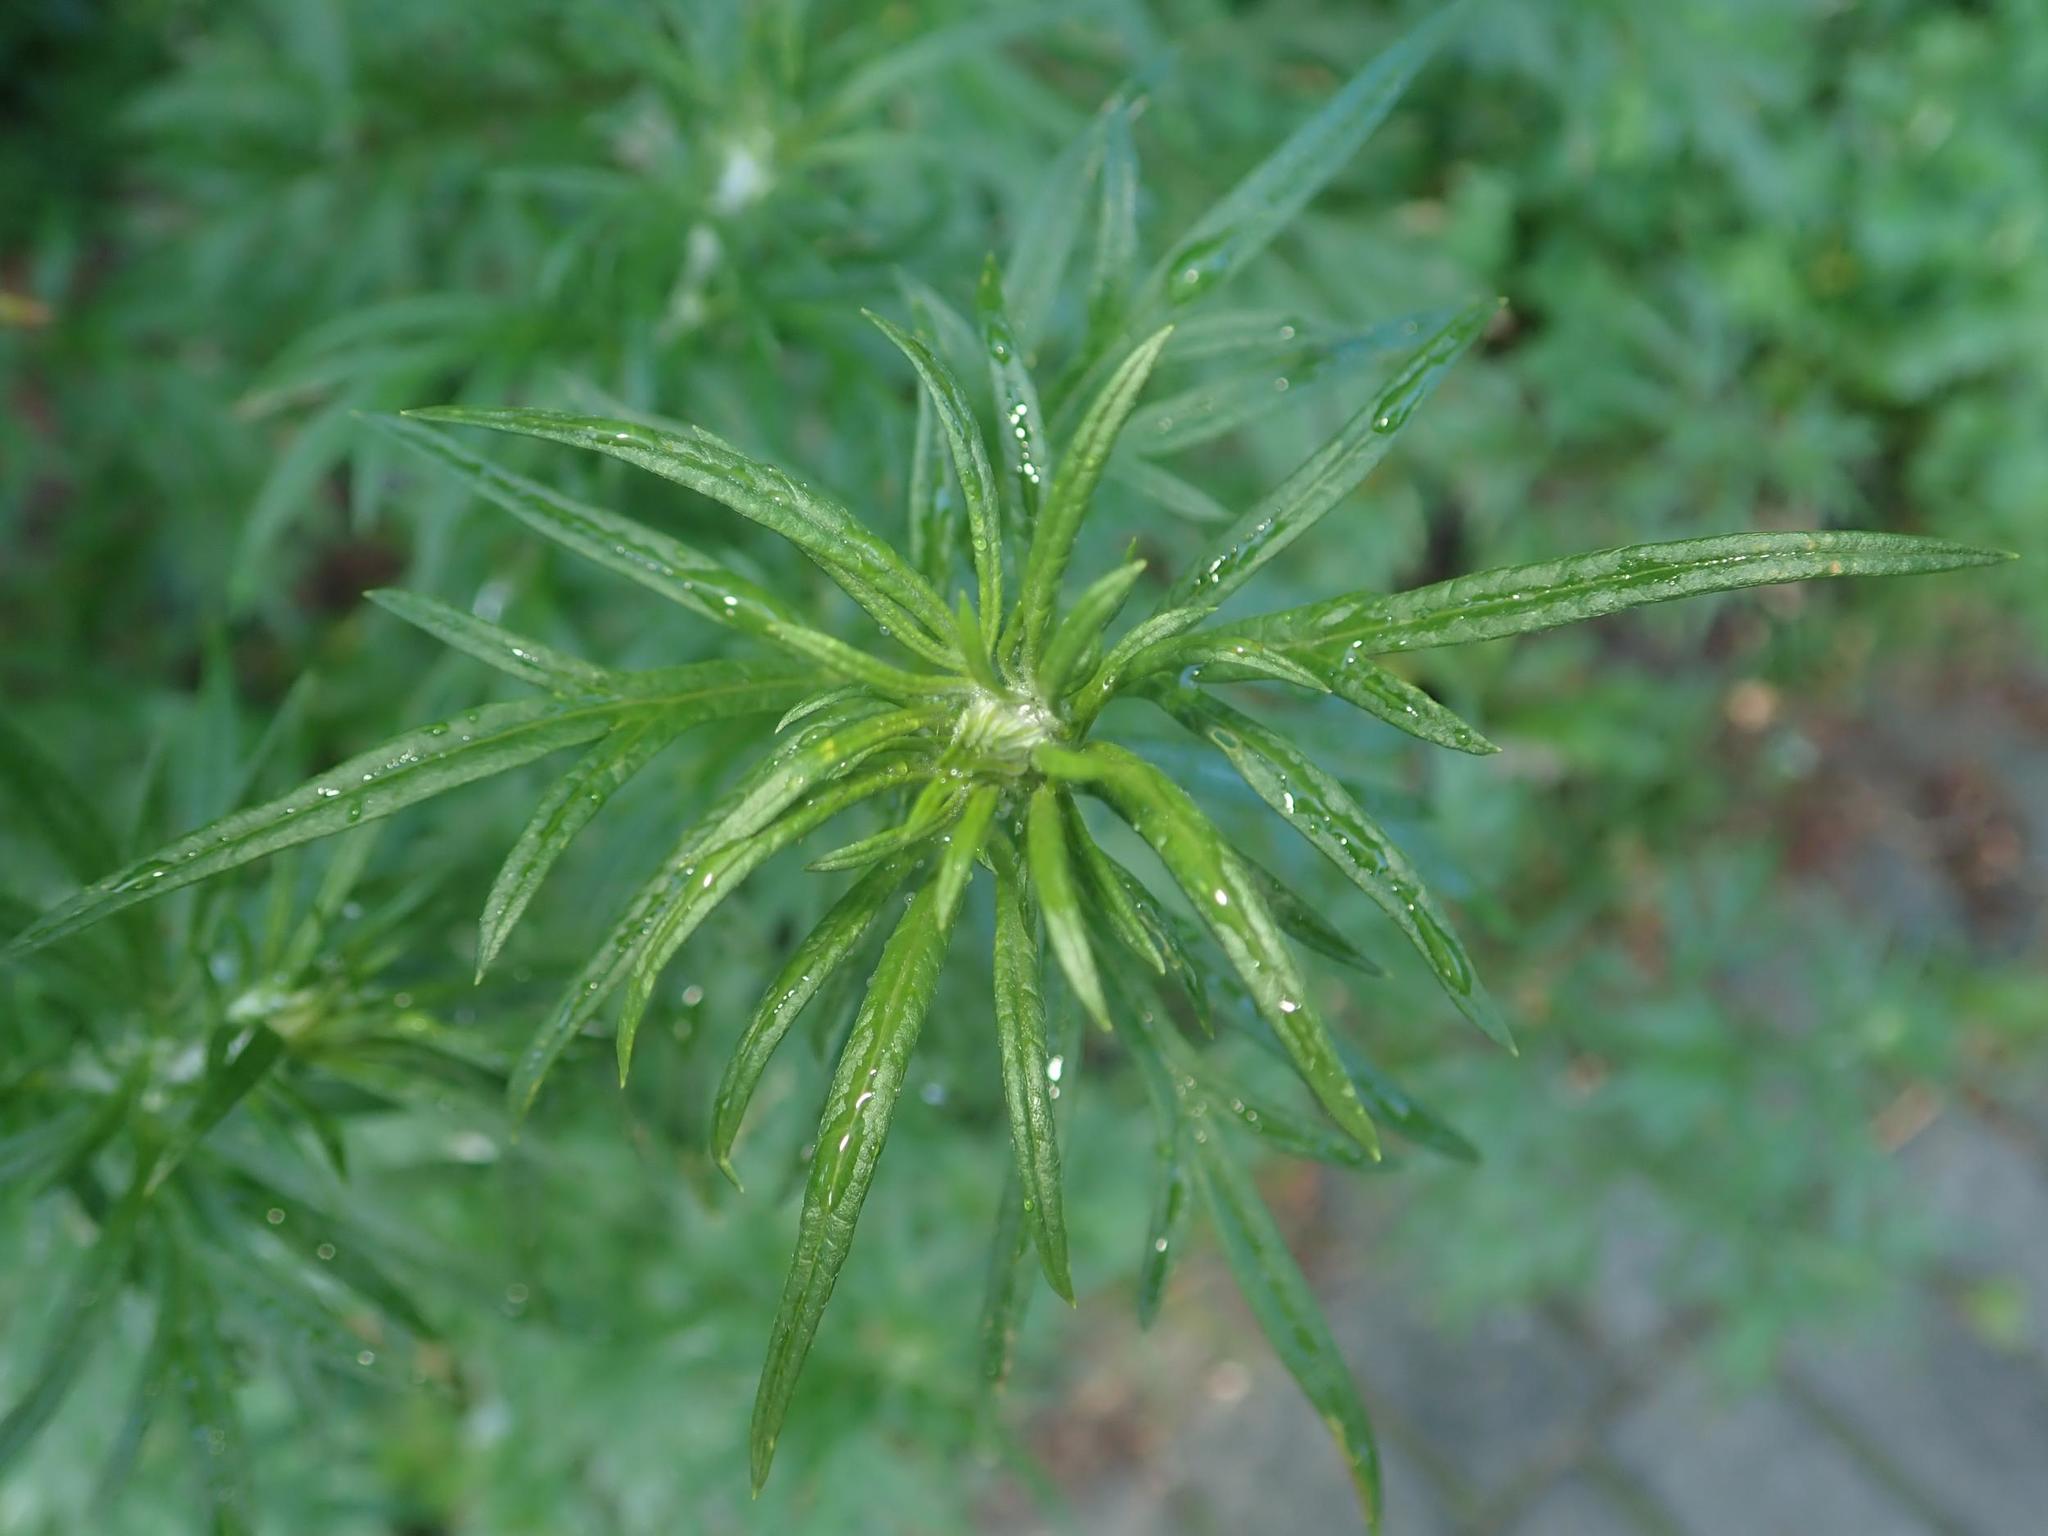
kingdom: Plantae
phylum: Tracheophyta
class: Magnoliopsida
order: Asterales
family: Asteraceae
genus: Artemisia
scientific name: Artemisia vulgaris
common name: Mugwort
